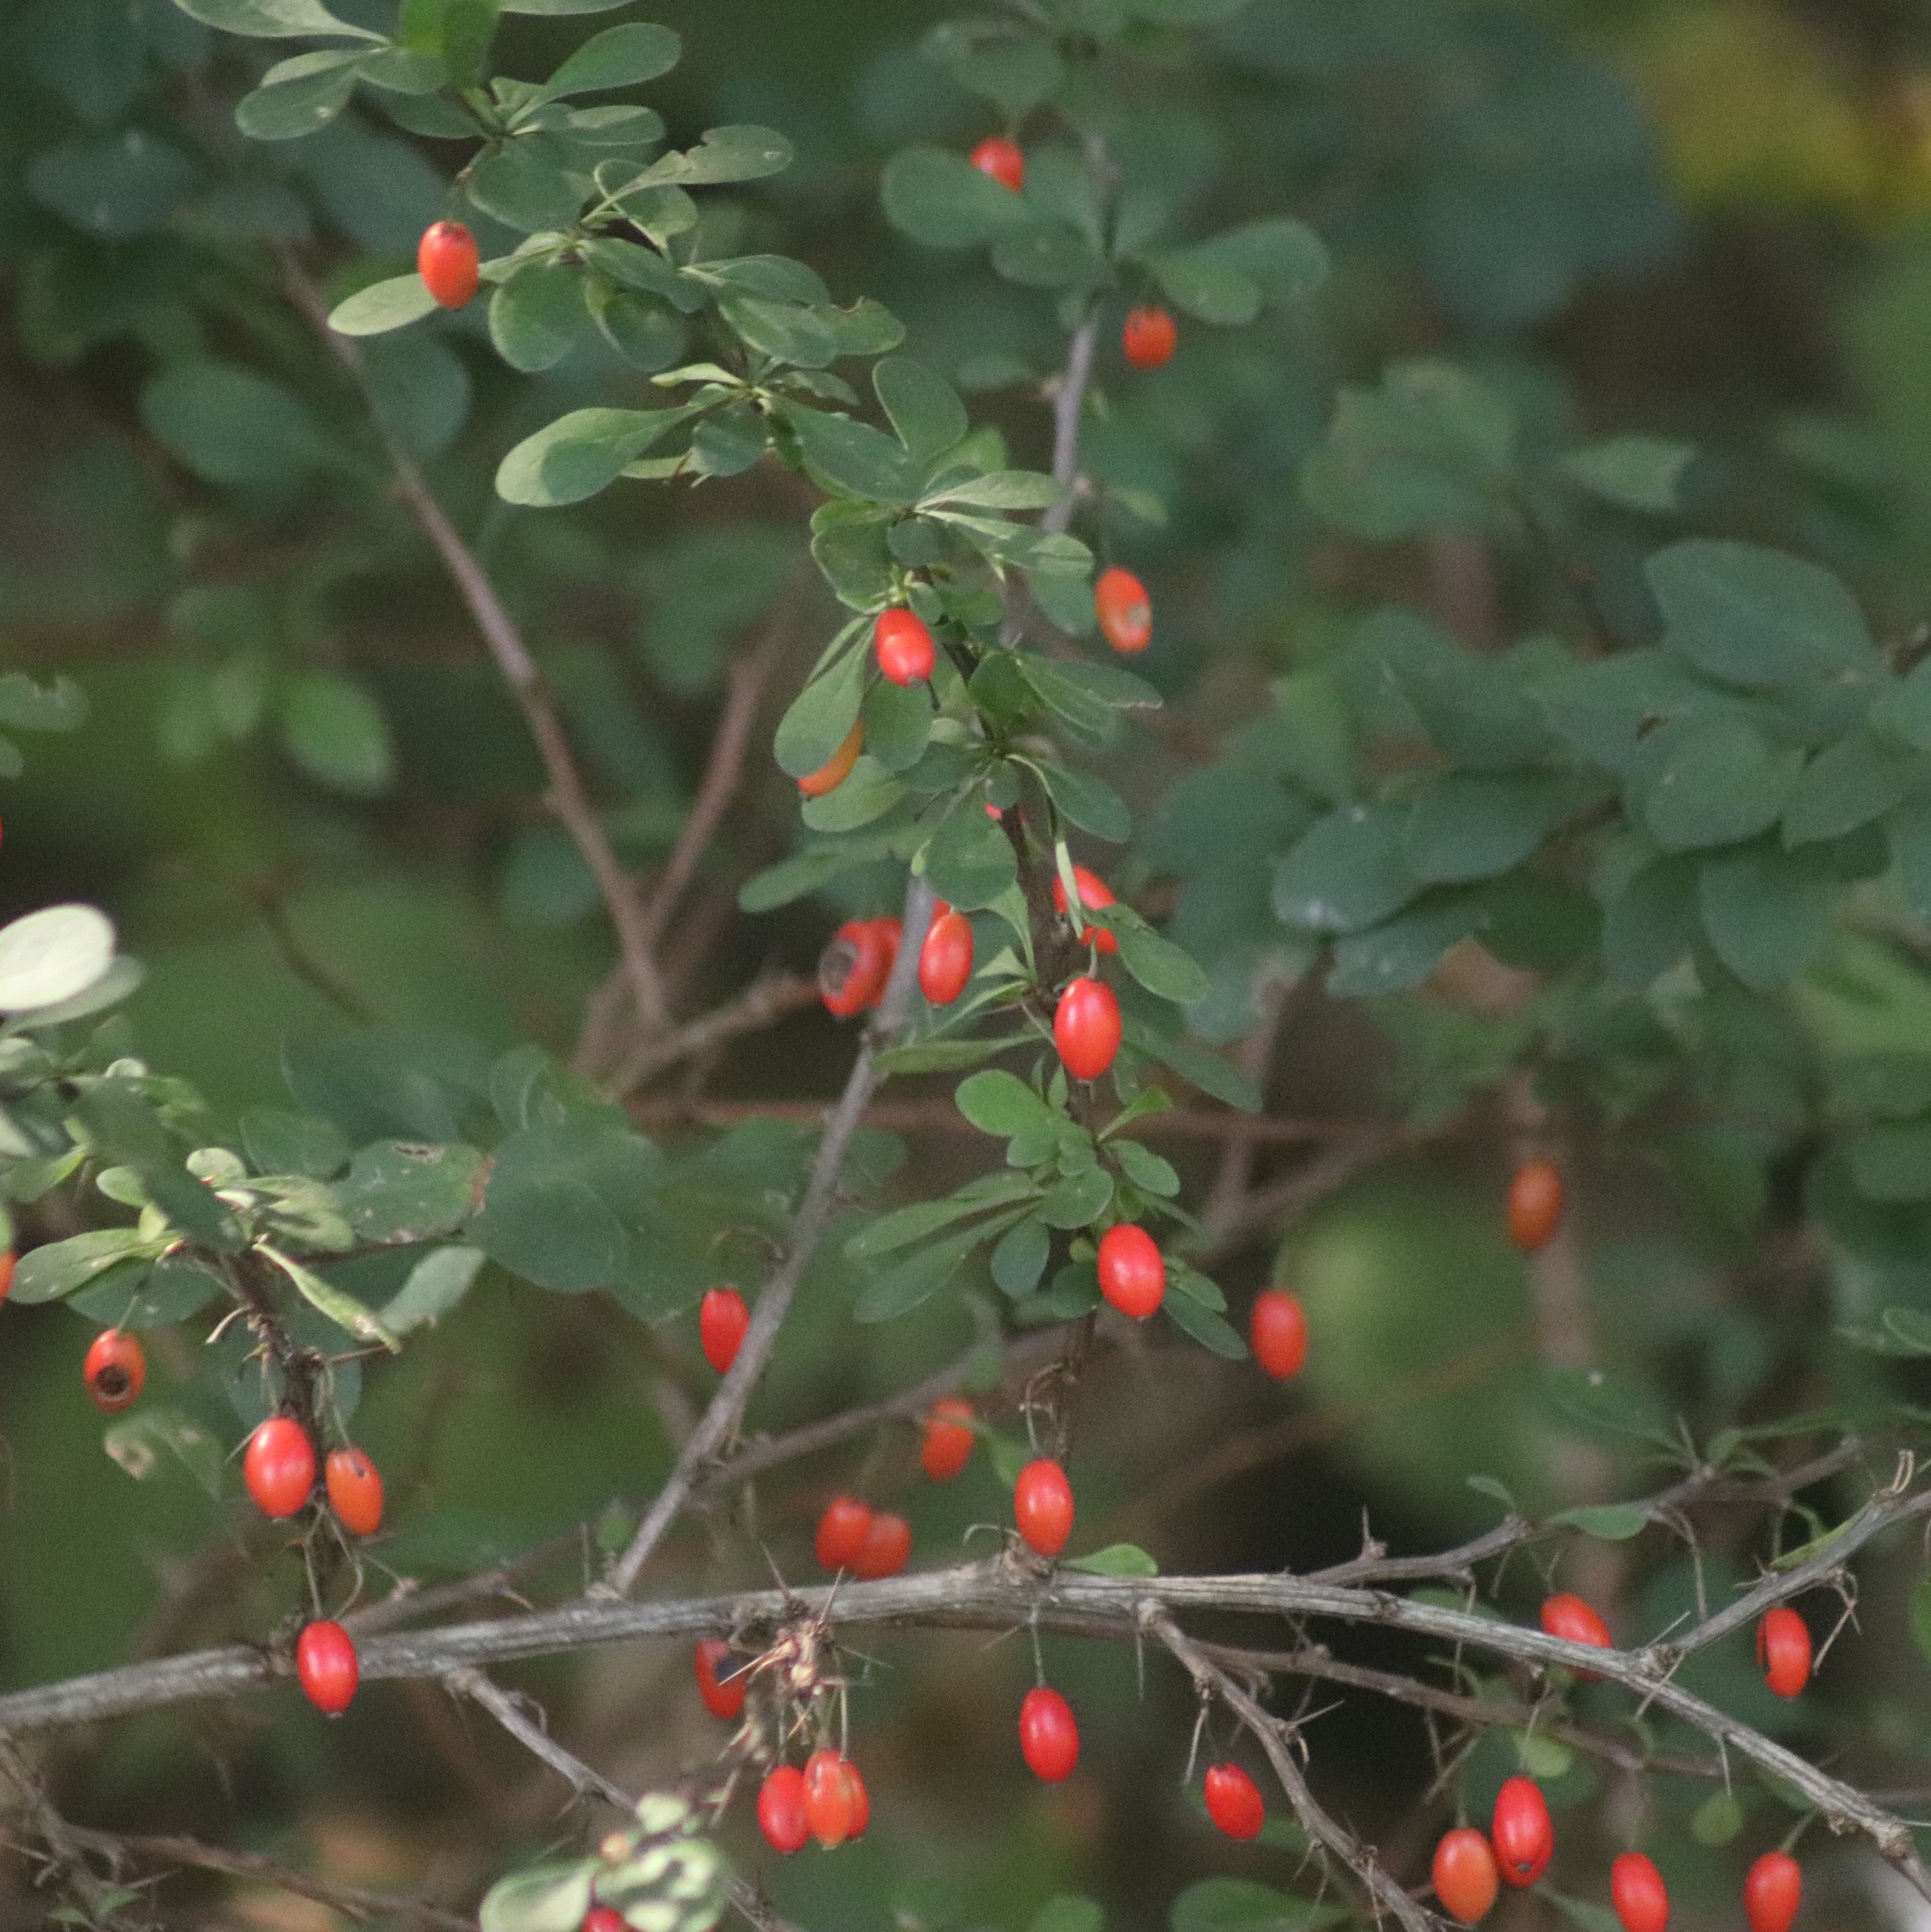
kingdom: Plantae
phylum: Tracheophyta
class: Magnoliopsida
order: Ranunculales
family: Berberidaceae
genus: Berberis
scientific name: Berberis thunbergii
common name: Japanese barberry
